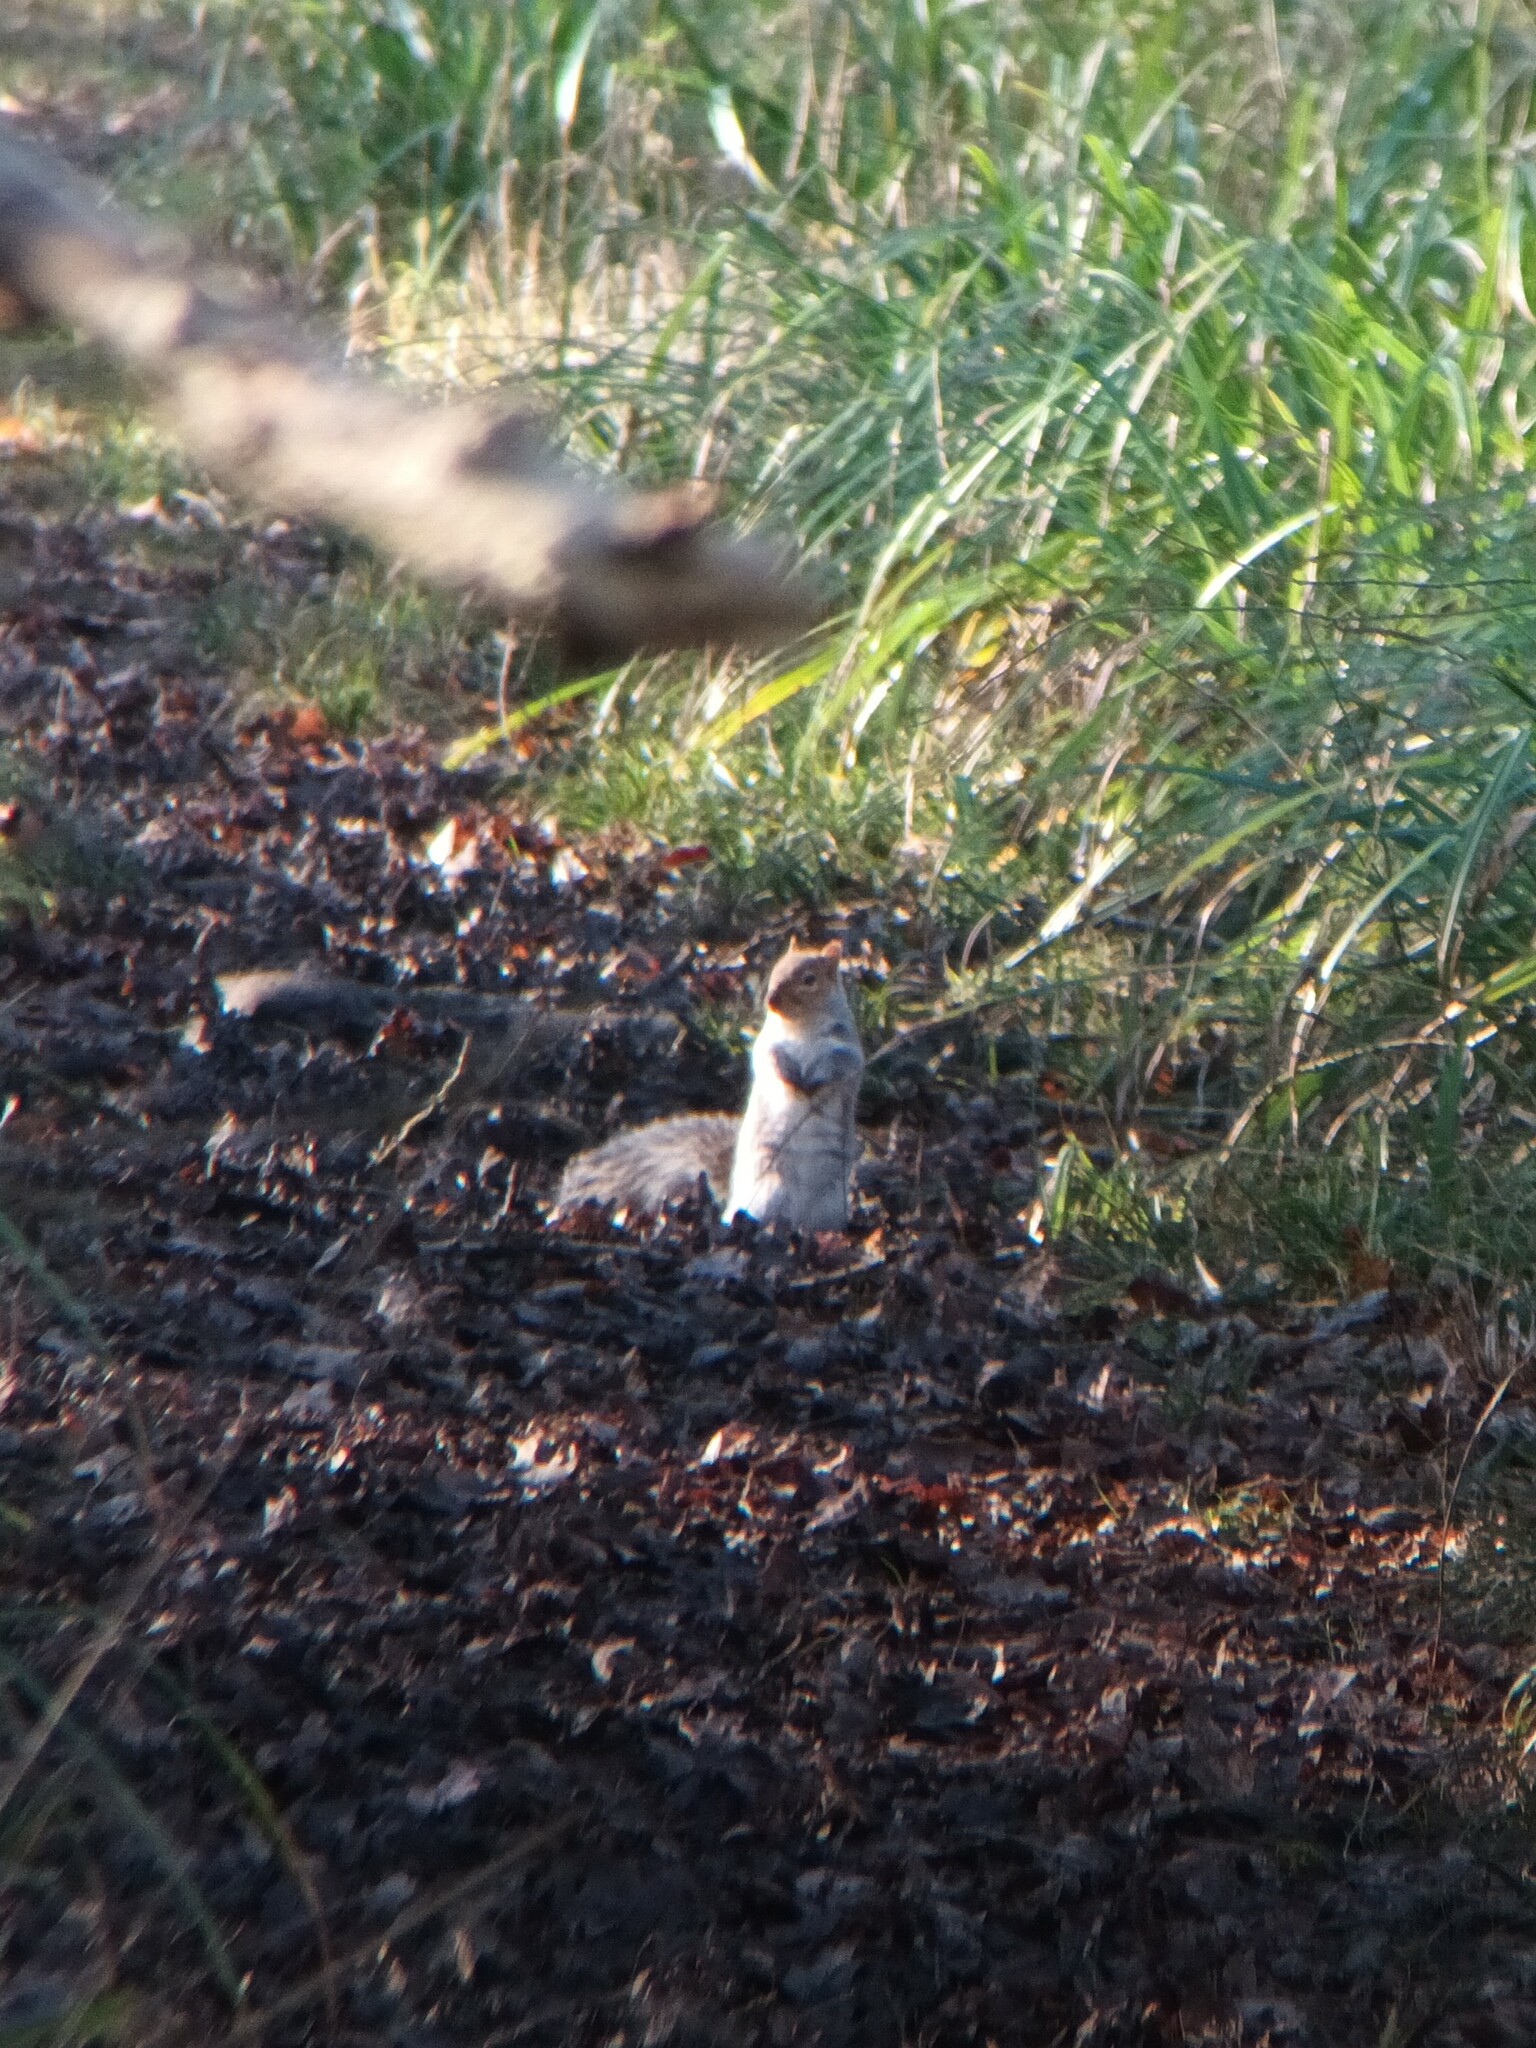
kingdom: Animalia
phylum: Chordata
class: Mammalia
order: Rodentia
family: Sciuridae
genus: Sciurus
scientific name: Sciurus carolinensis
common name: Eastern gray squirrel
